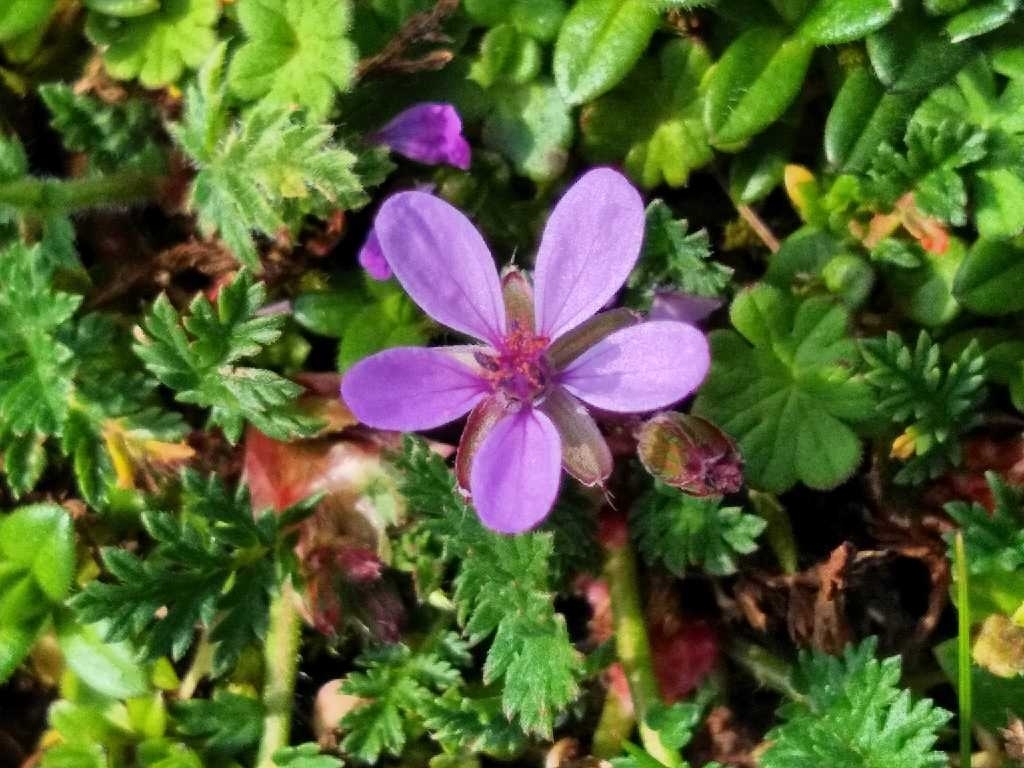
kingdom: Plantae
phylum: Tracheophyta
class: Magnoliopsida
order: Geraniales
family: Geraniaceae
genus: Erodium
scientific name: Erodium cicutarium
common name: Common stork's-bill
